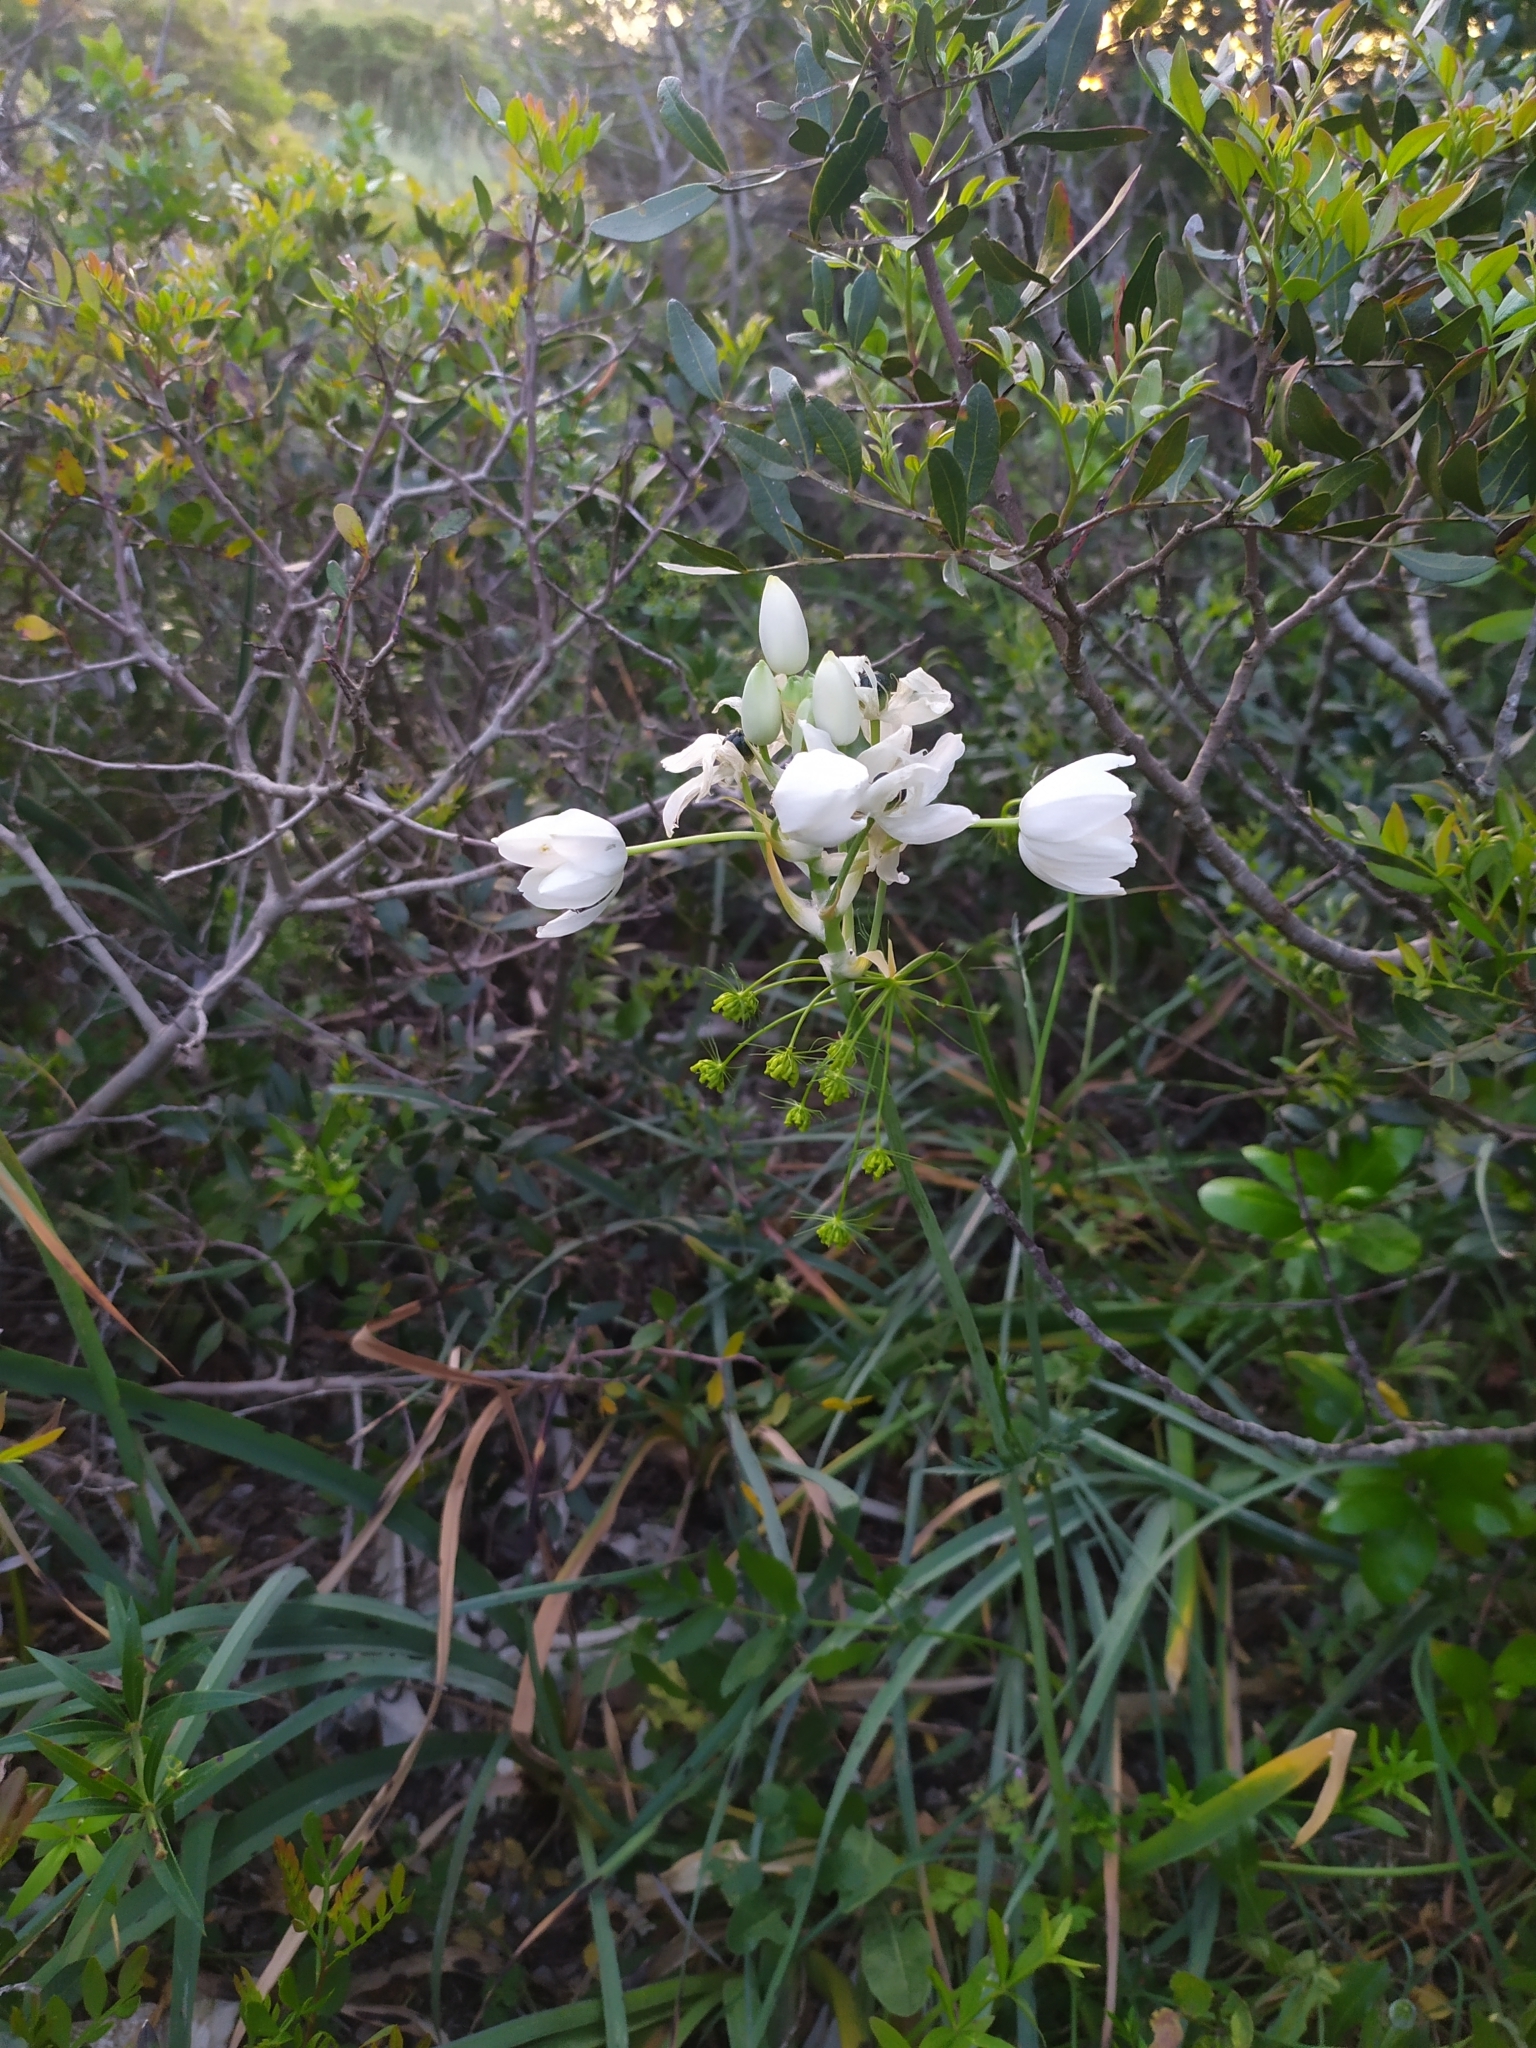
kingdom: Plantae
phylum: Tracheophyta
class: Liliopsida
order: Asparagales
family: Asparagaceae
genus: Ornithogalum
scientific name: Ornithogalum arabicum
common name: Arabian starflower
